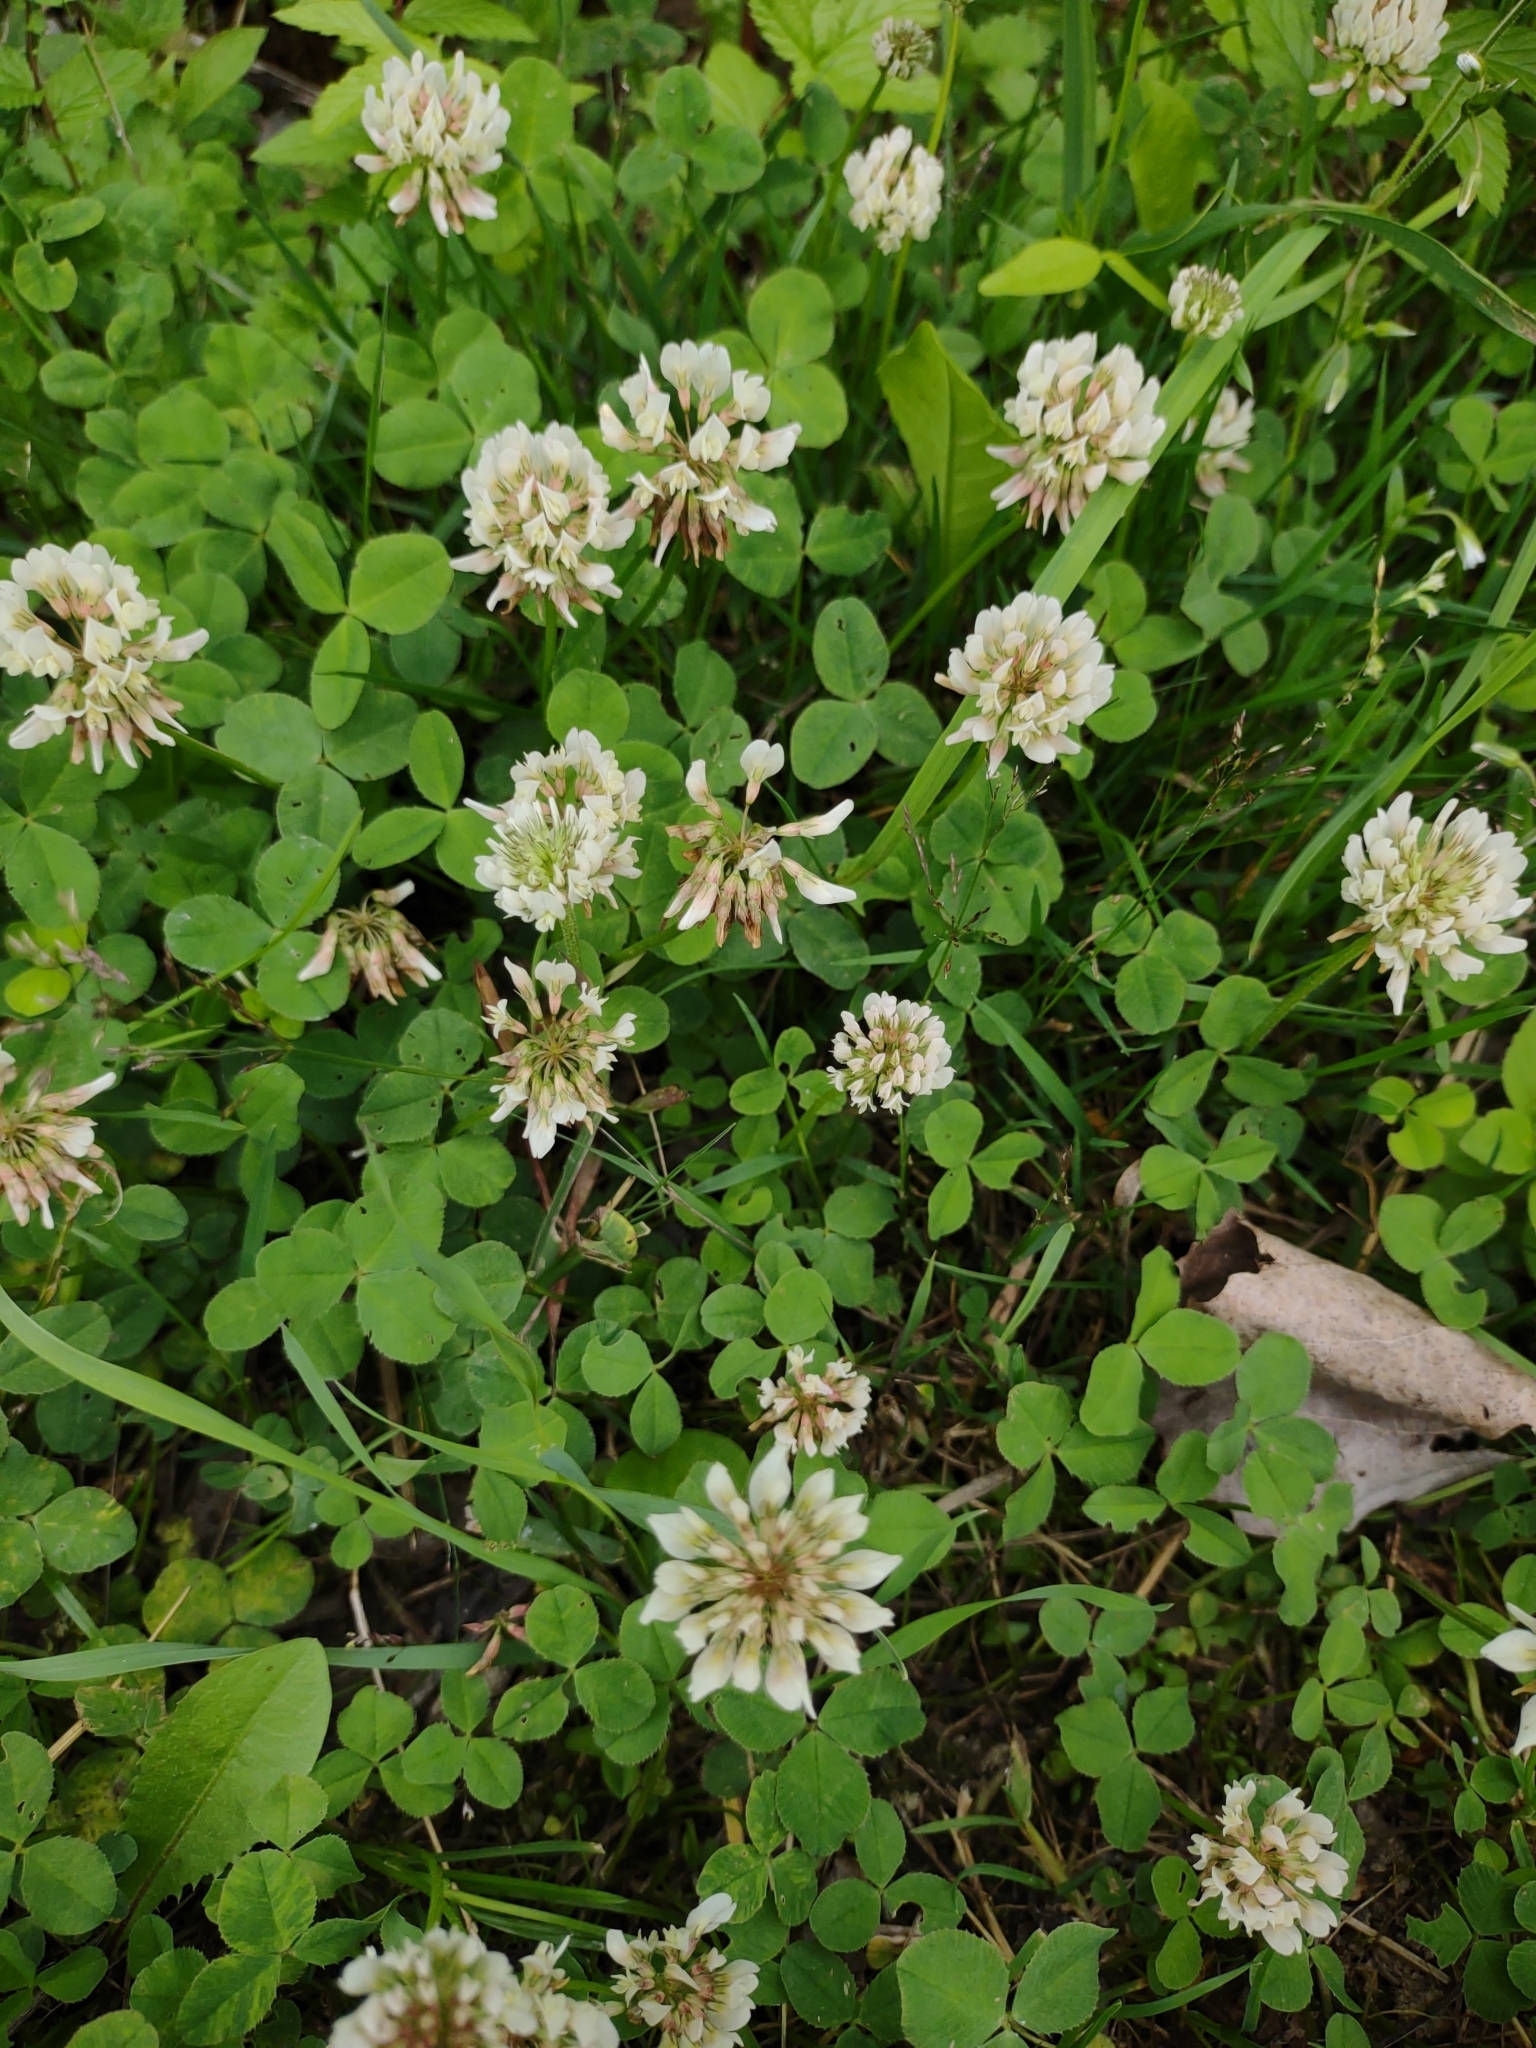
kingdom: Plantae
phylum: Tracheophyta
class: Magnoliopsida
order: Fabales
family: Fabaceae
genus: Trifolium
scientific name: Trifolium repens
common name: White clover
